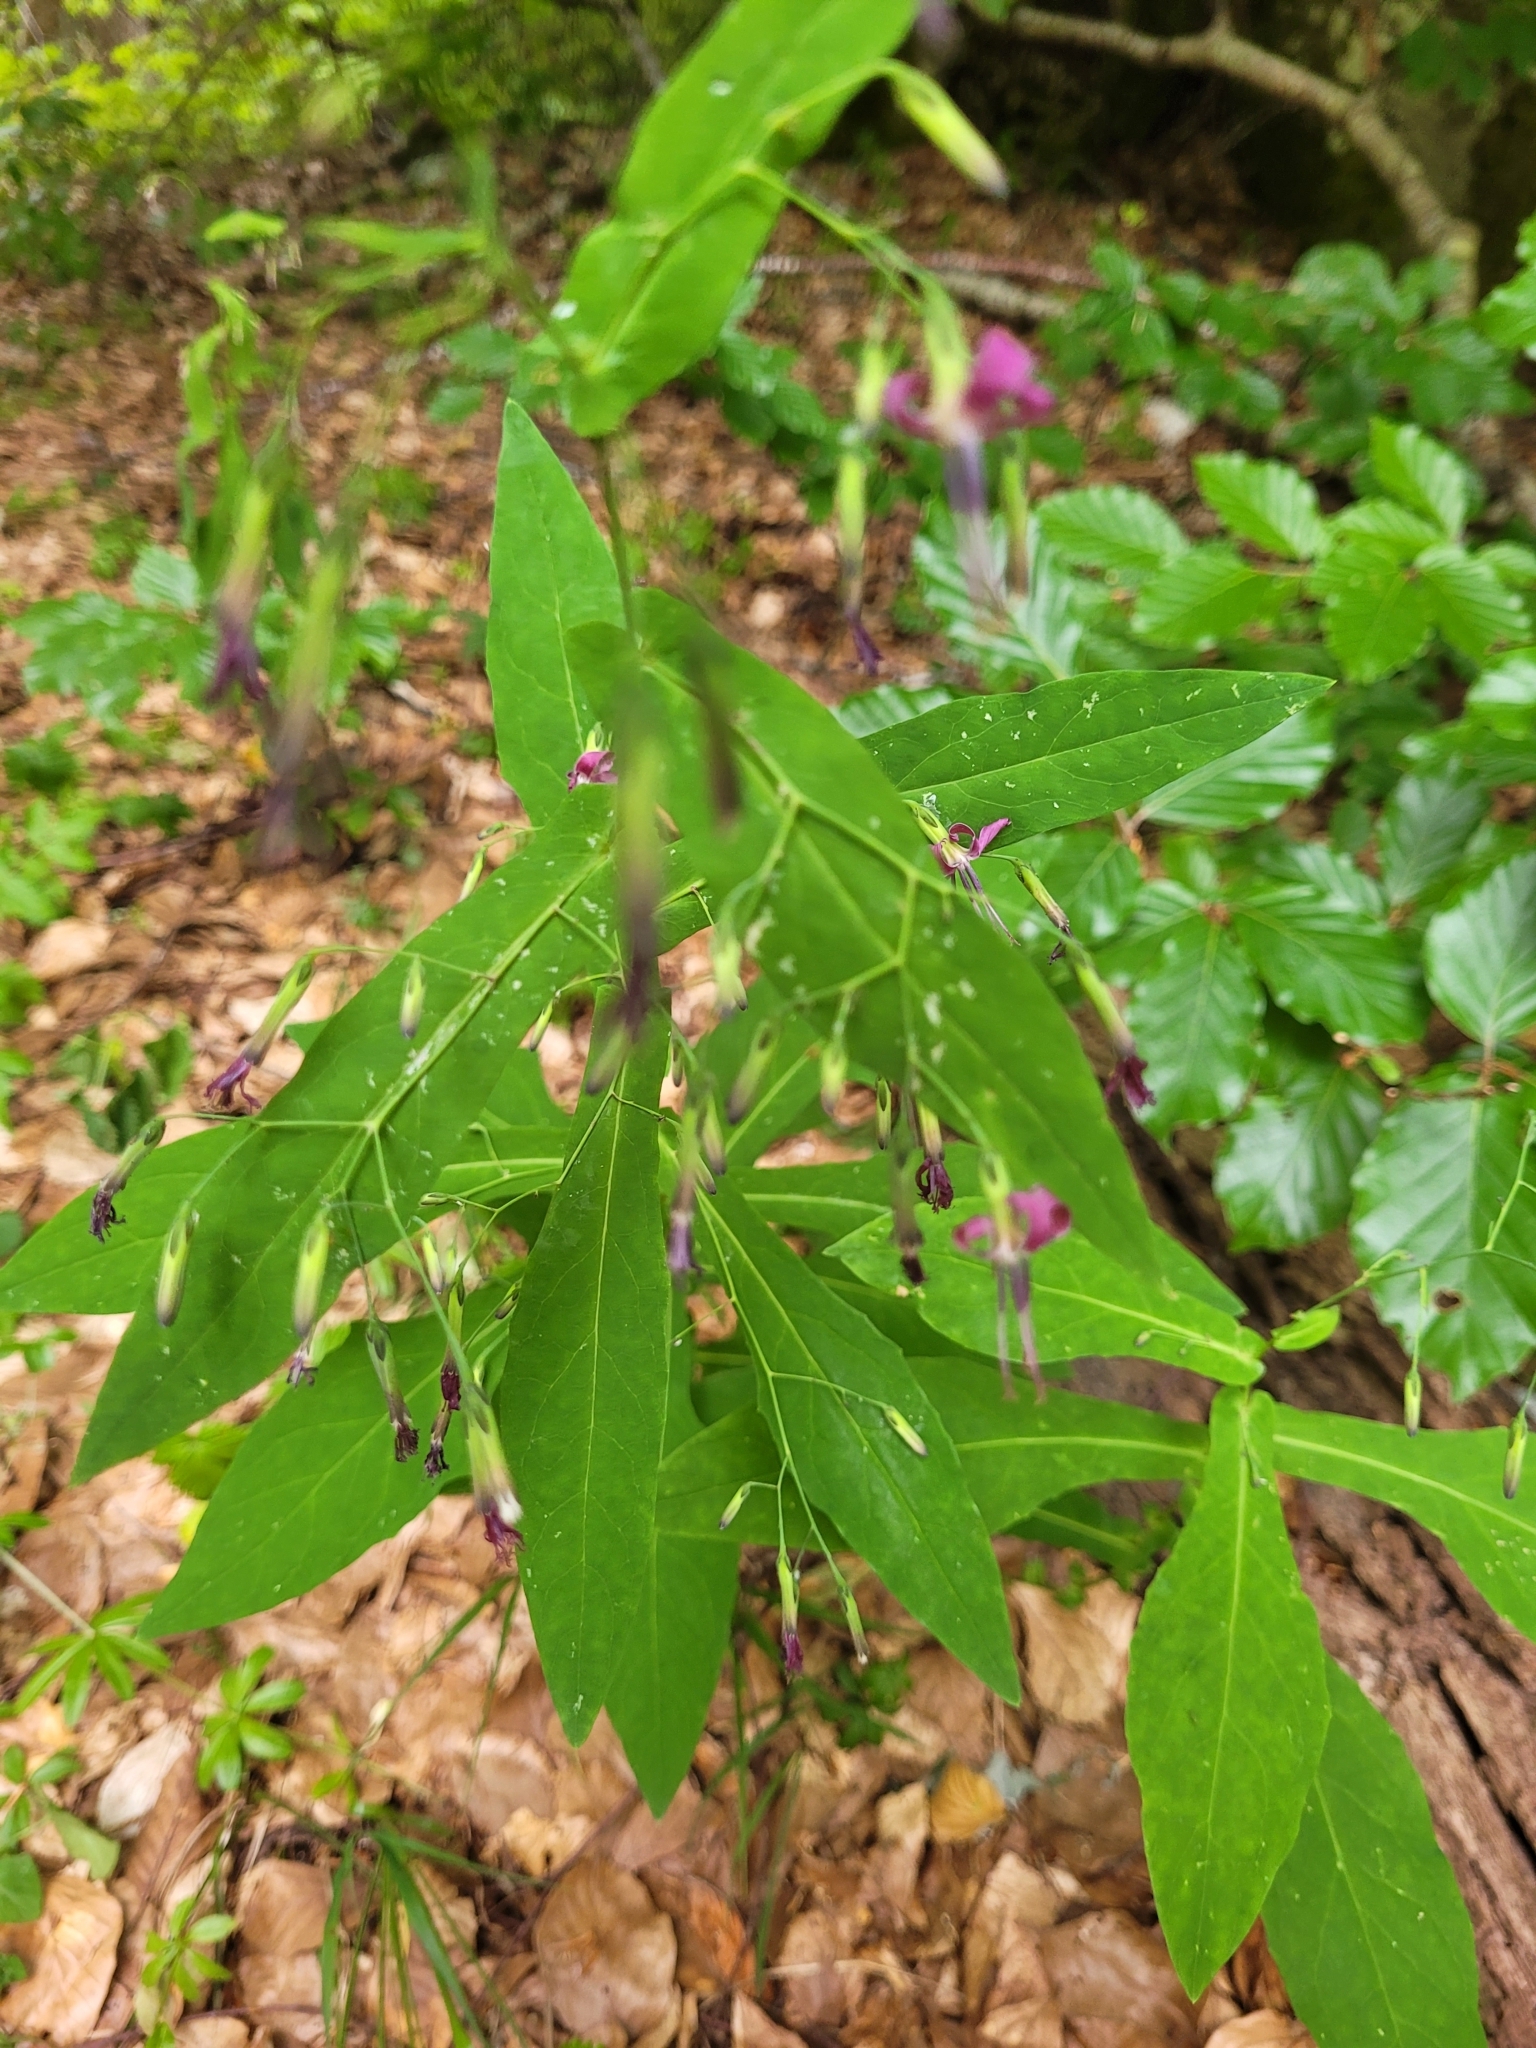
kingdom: Plantae
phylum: Tracheophyta
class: Magnoliopsida
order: Asterales
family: Asteraceae
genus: Prenanthes
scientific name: Prenanthes purpurea
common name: Purple lettuce
